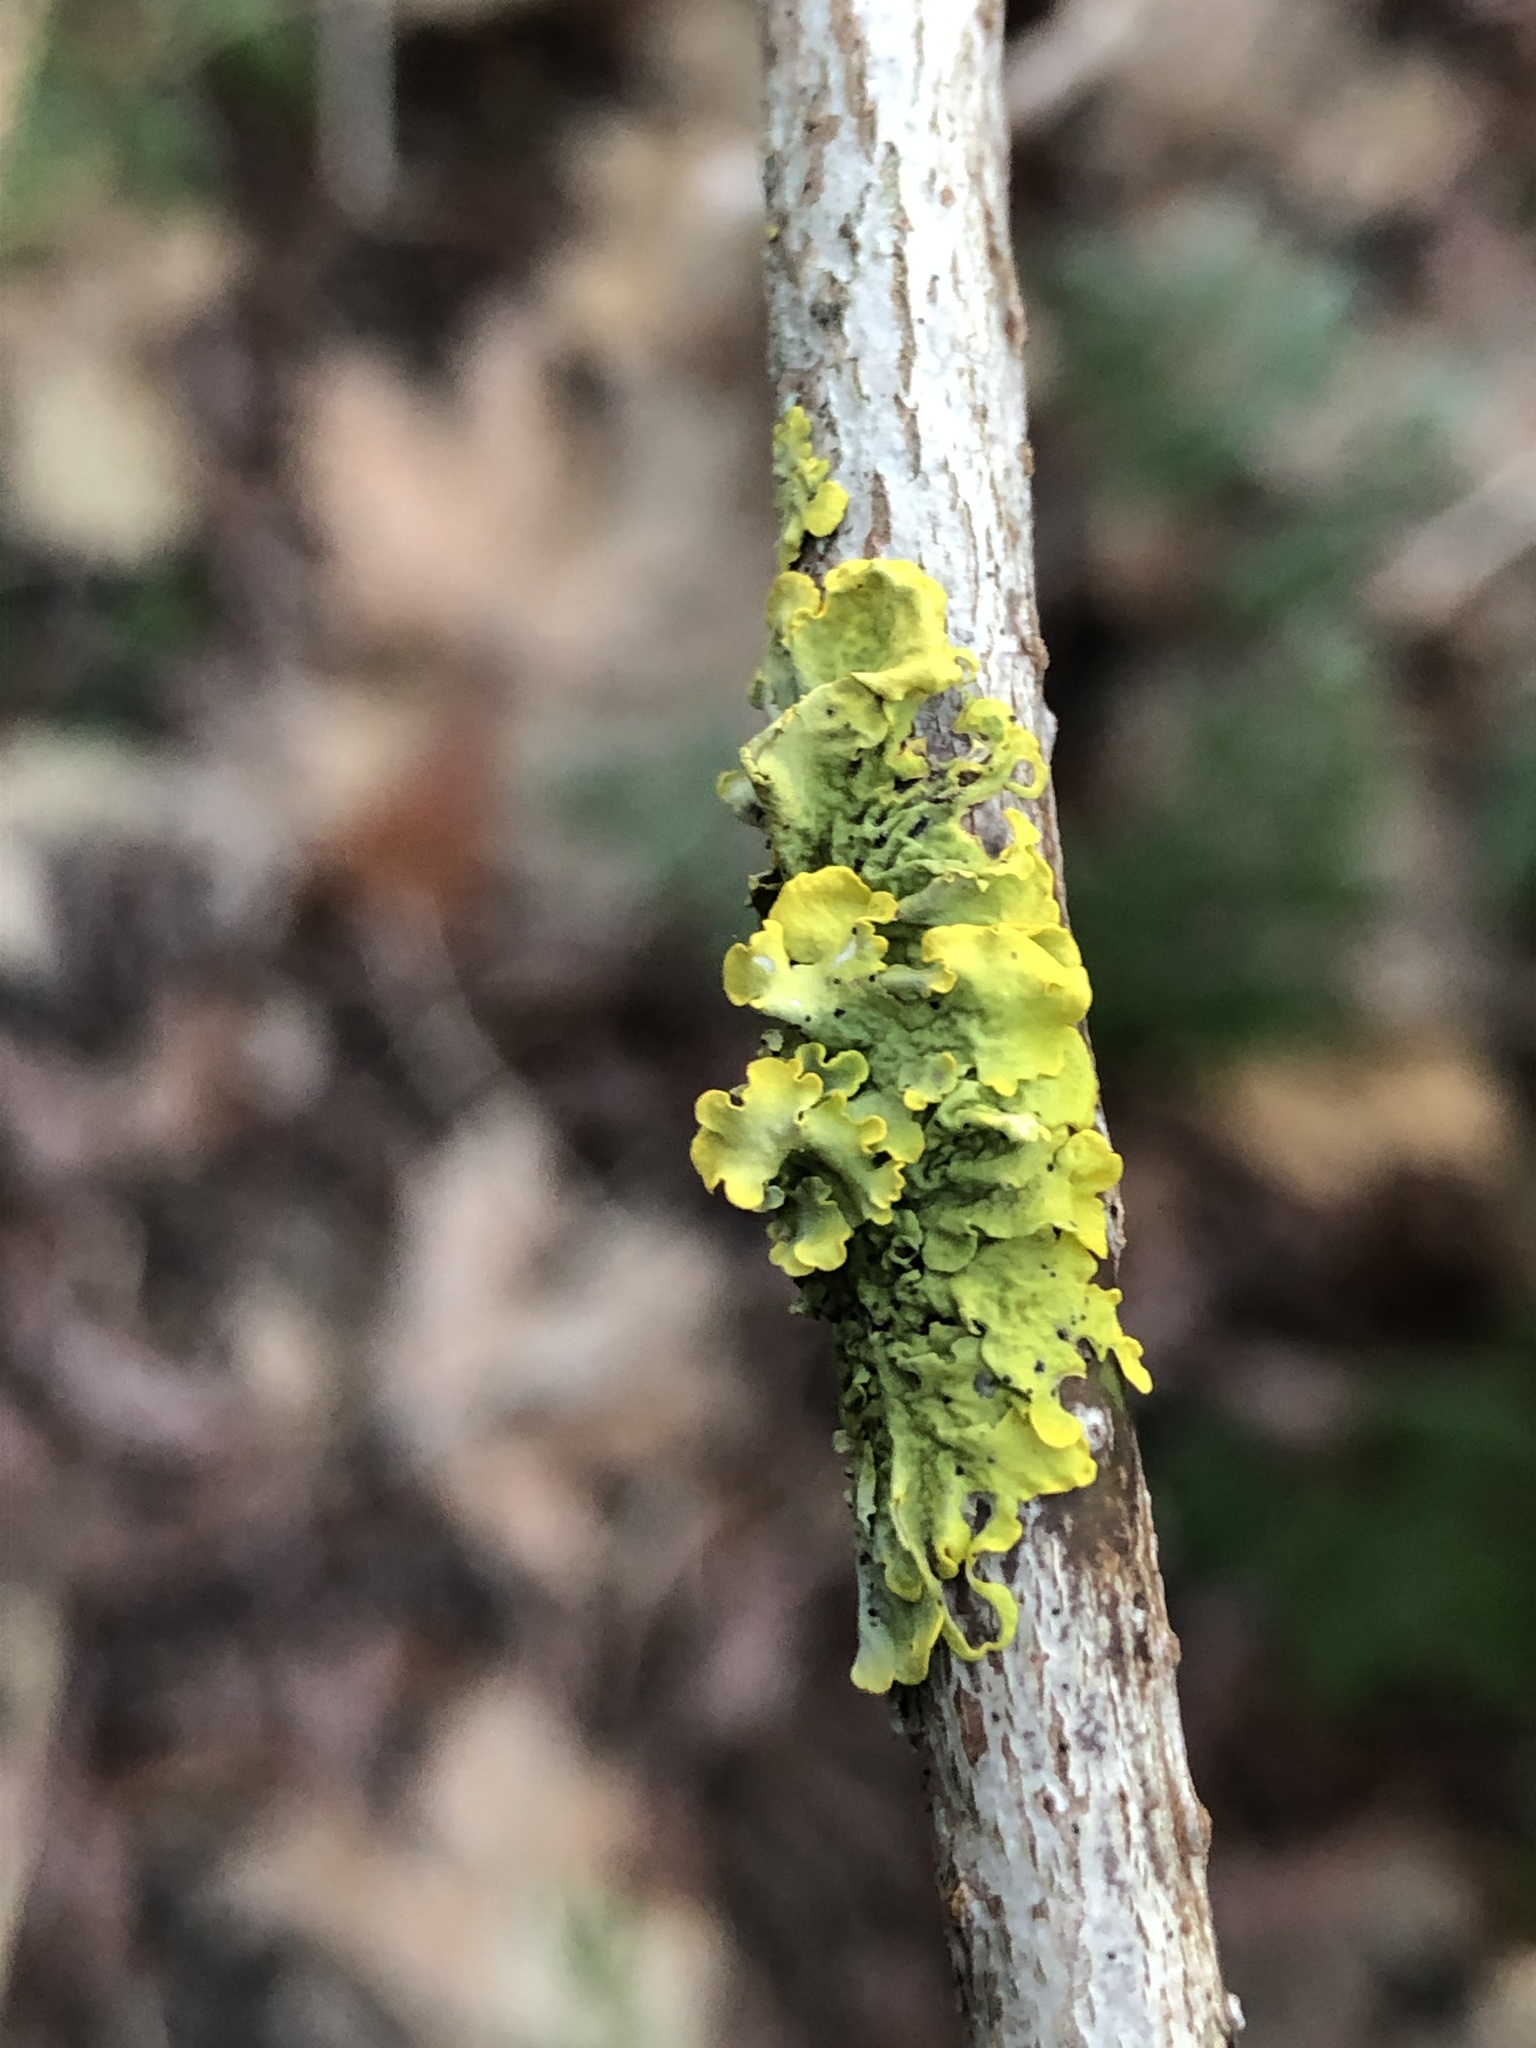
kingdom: Fungi
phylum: Ascomycota
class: Lecanoromycetes
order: Teloschistales
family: Teloschistaceae
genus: Xanthoria
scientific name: Xanthoria parietina
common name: Common orange lichen
